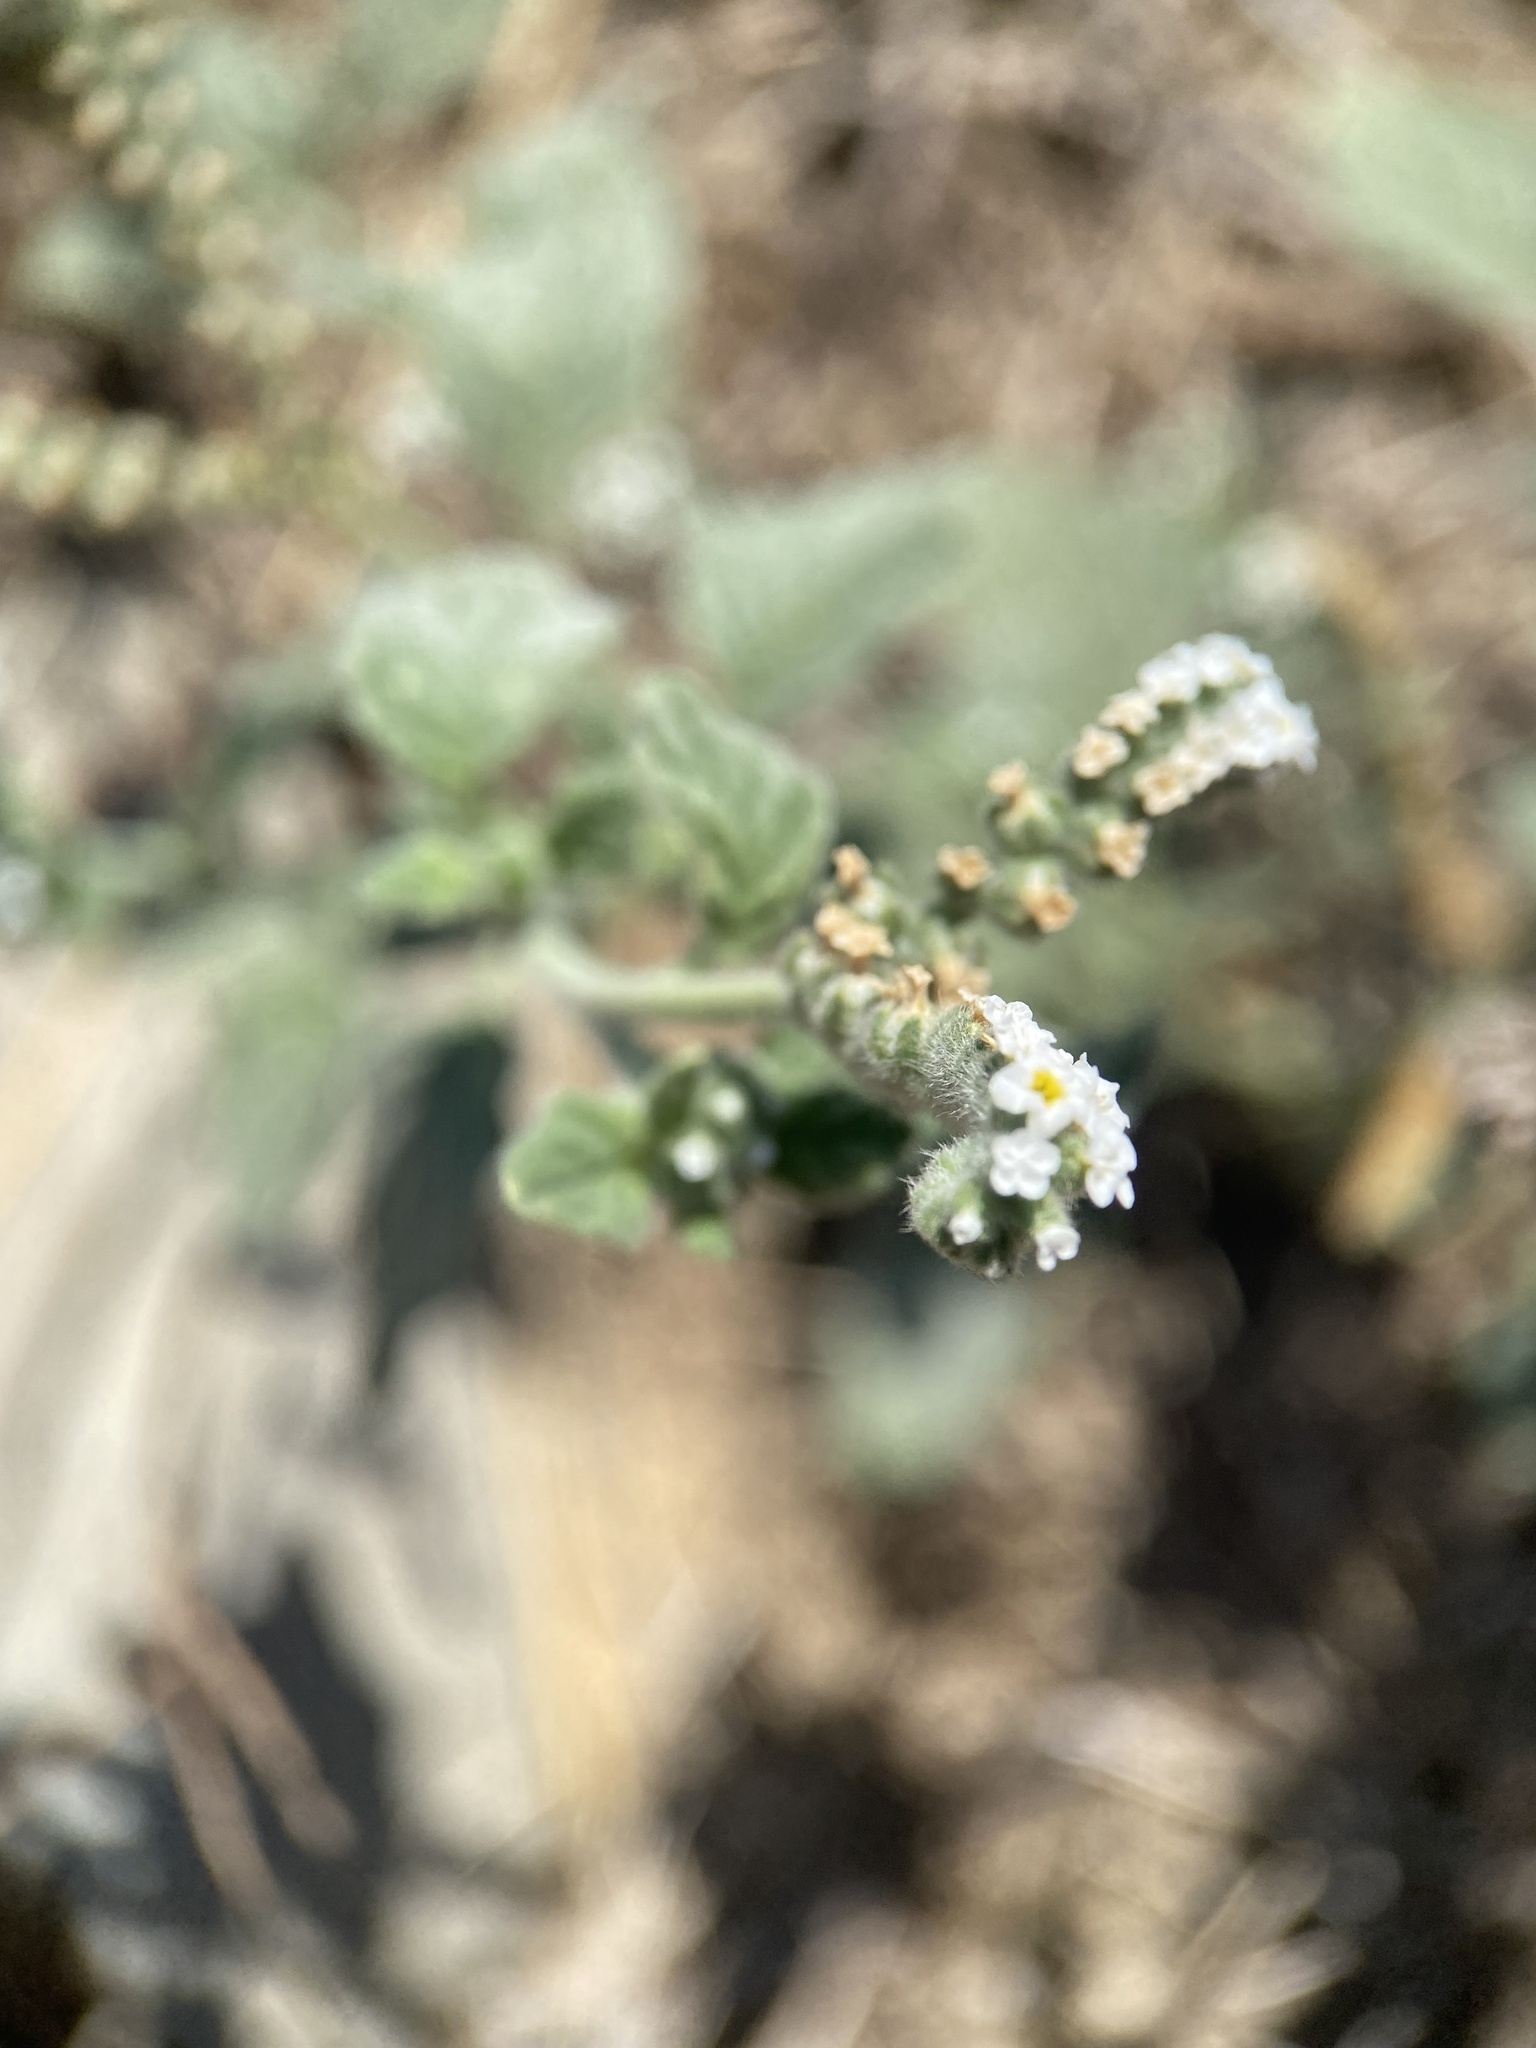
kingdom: Plantae
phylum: Tracheophyta
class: Magnoliopsida
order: Boraginales
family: Heliotropiaceae
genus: Heliotropium
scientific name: Heliotropium supinum
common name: Dwarf heliotrope
